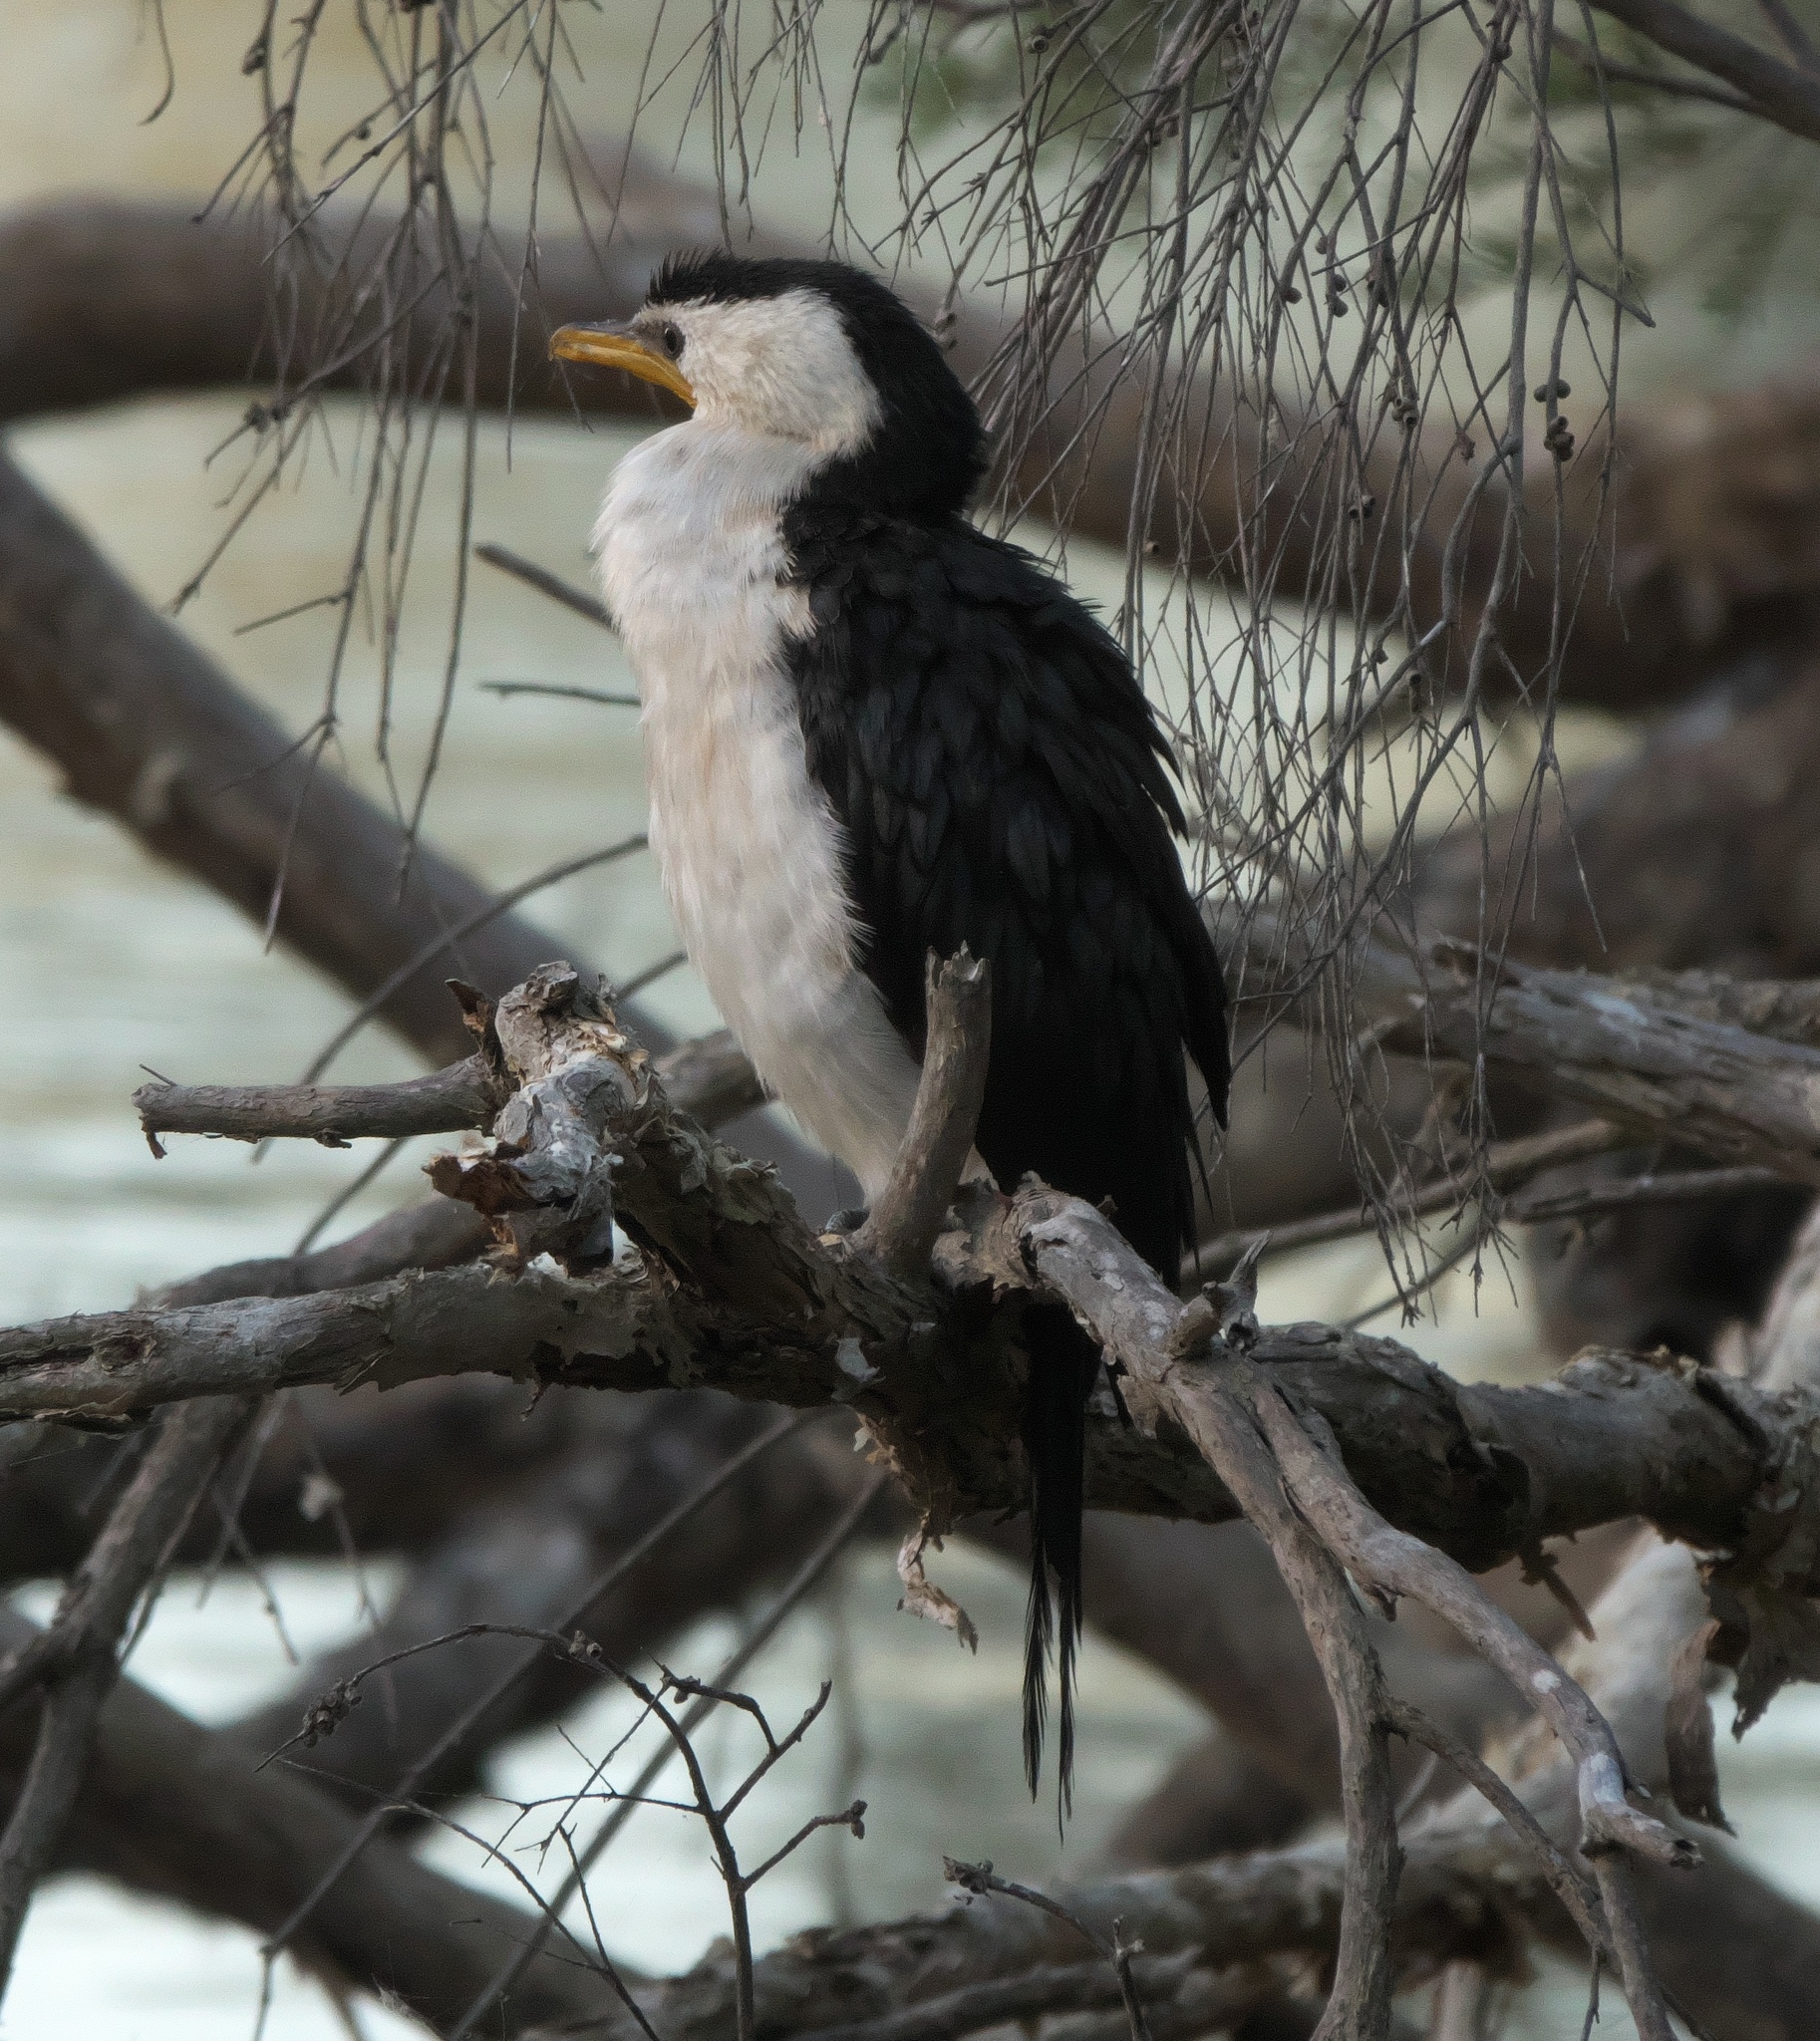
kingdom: Animalia
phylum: Chordata
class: Aves
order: Suliformes
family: Phalacrocoracidae
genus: Microcarbo
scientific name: Microcarbo melanoleucos
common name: Little pied cormorant
